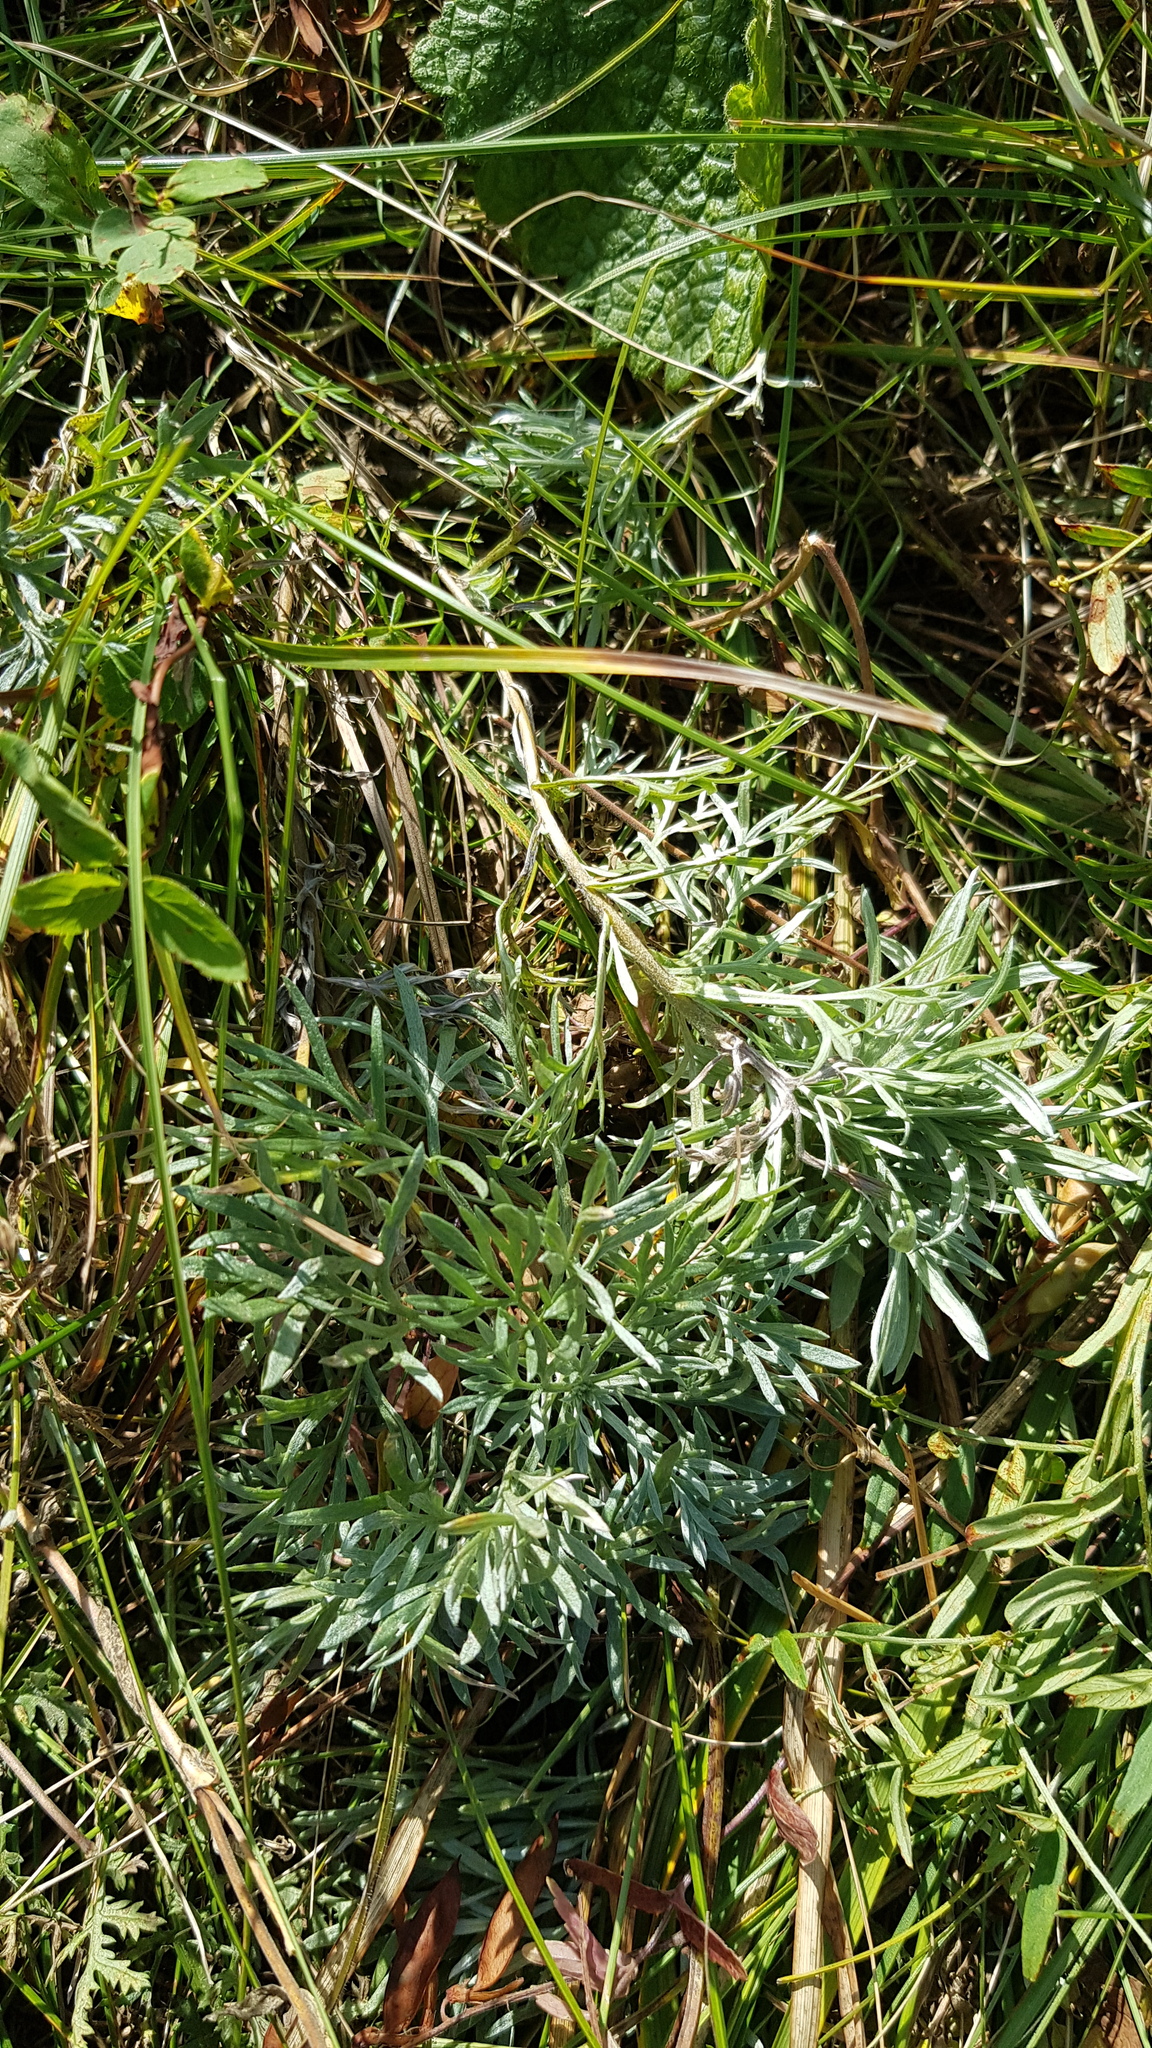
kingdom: Plantae
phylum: Tracheophyta
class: Magnoliopsida
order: Asterales
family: Asteraceae
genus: Artemisia
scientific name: Artemisia sericea
